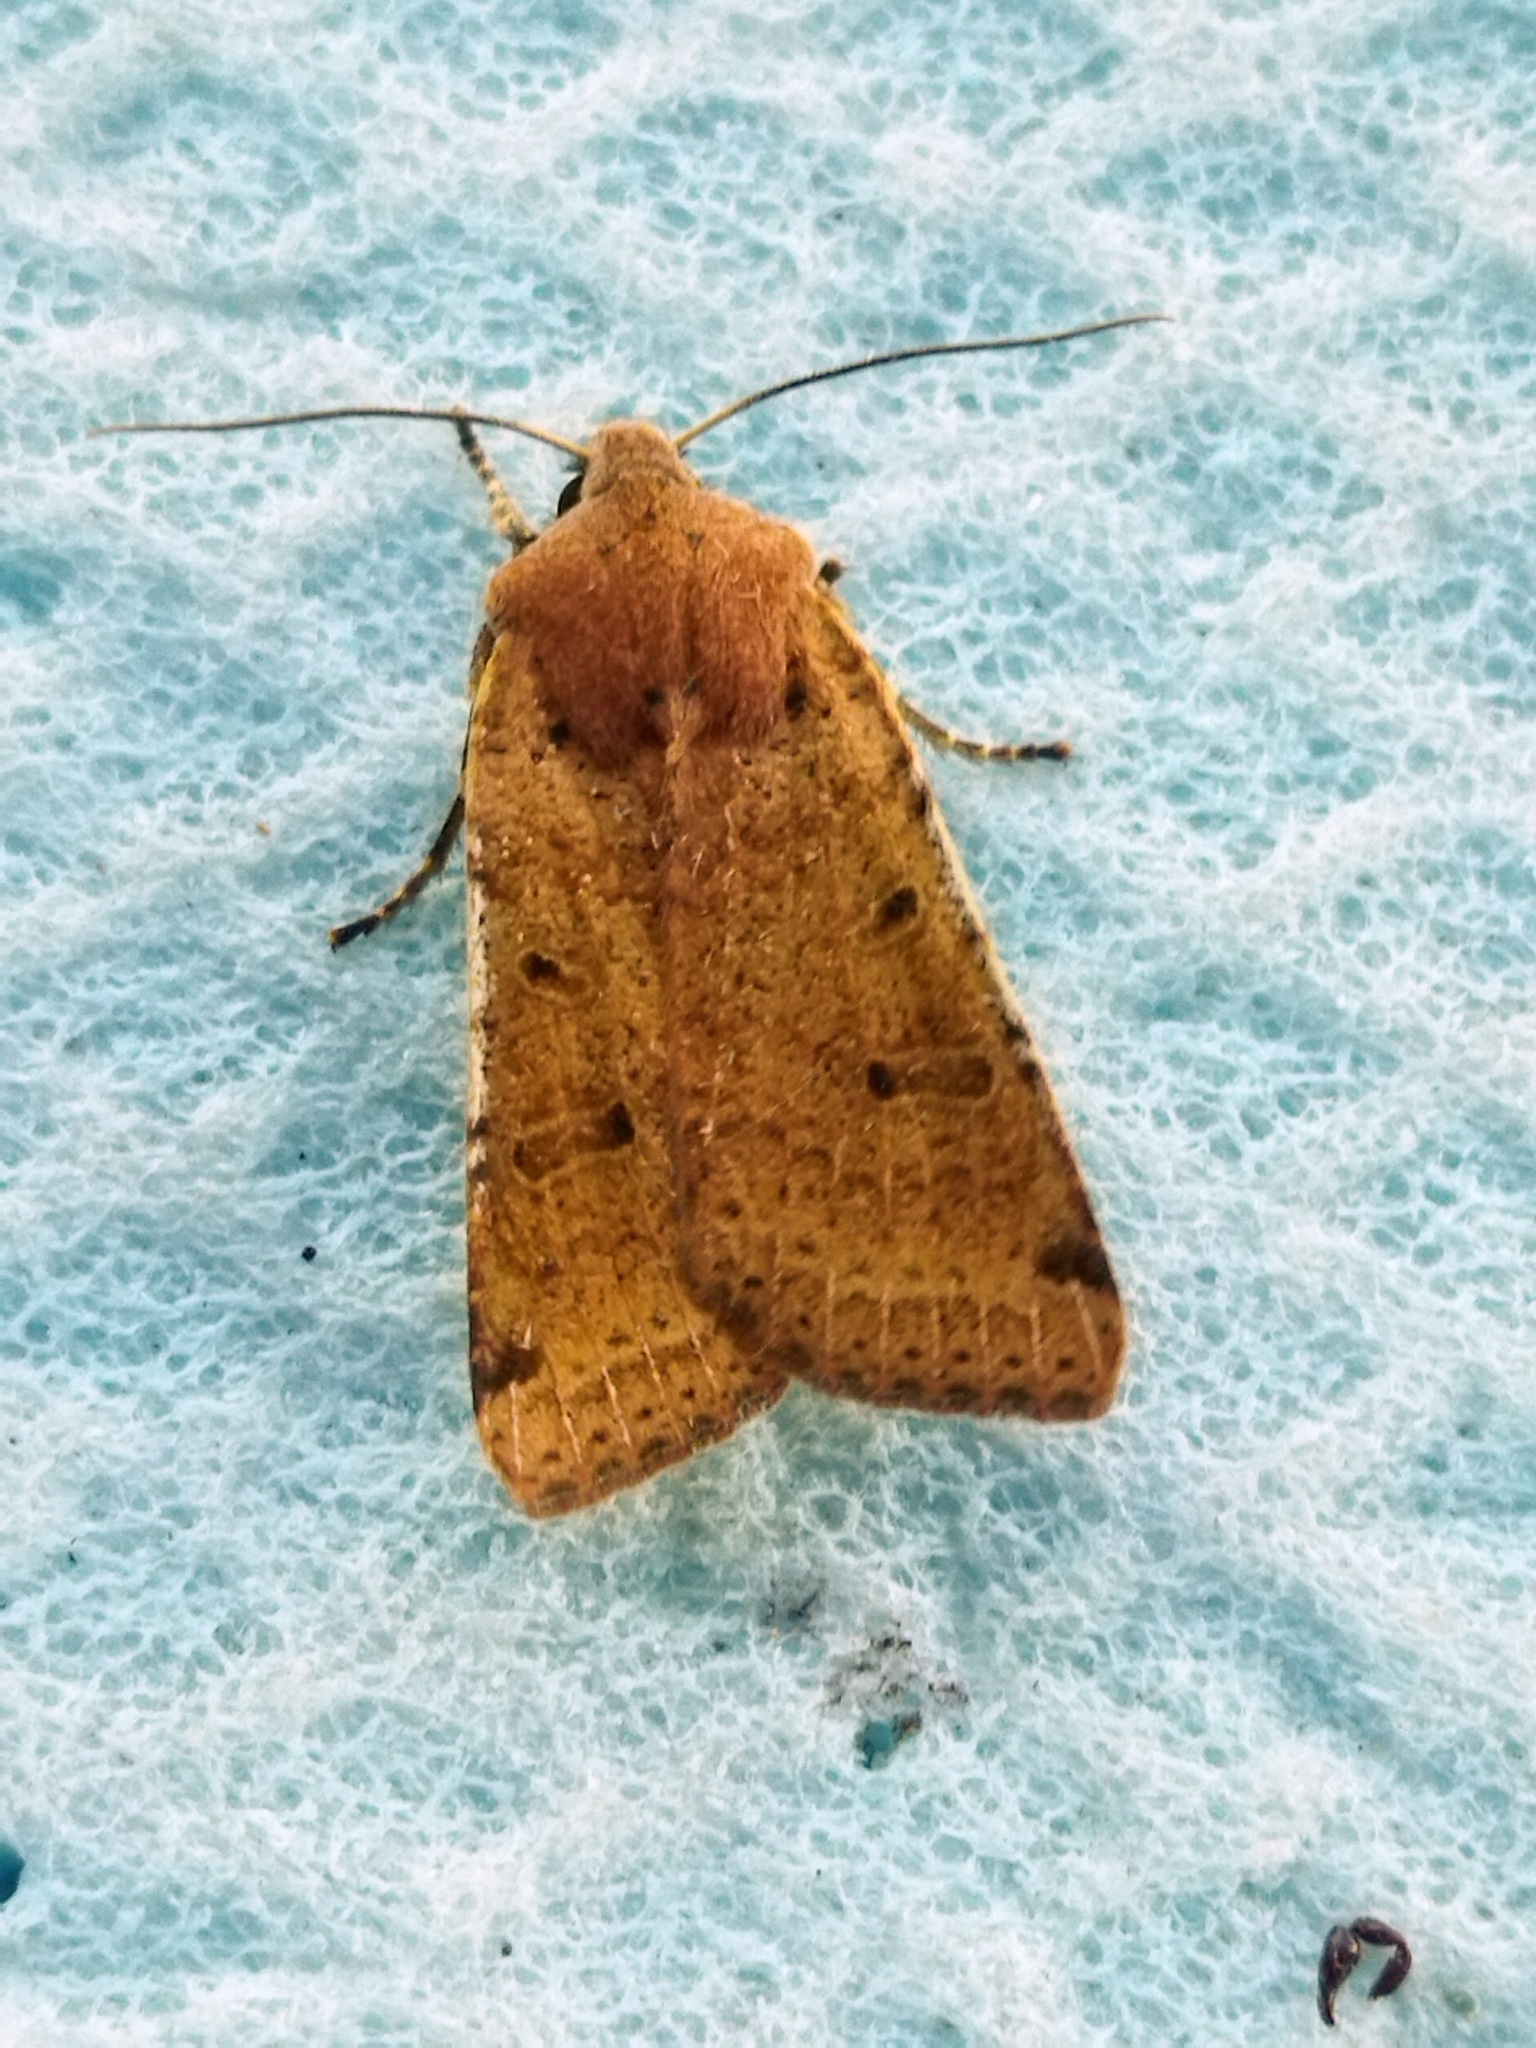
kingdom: Animalia
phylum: Arthropoda
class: Insecta
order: Lepidoptera
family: Noctuidae
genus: Agrochola
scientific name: Agrochola lychnidis
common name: Beaded chestnut
